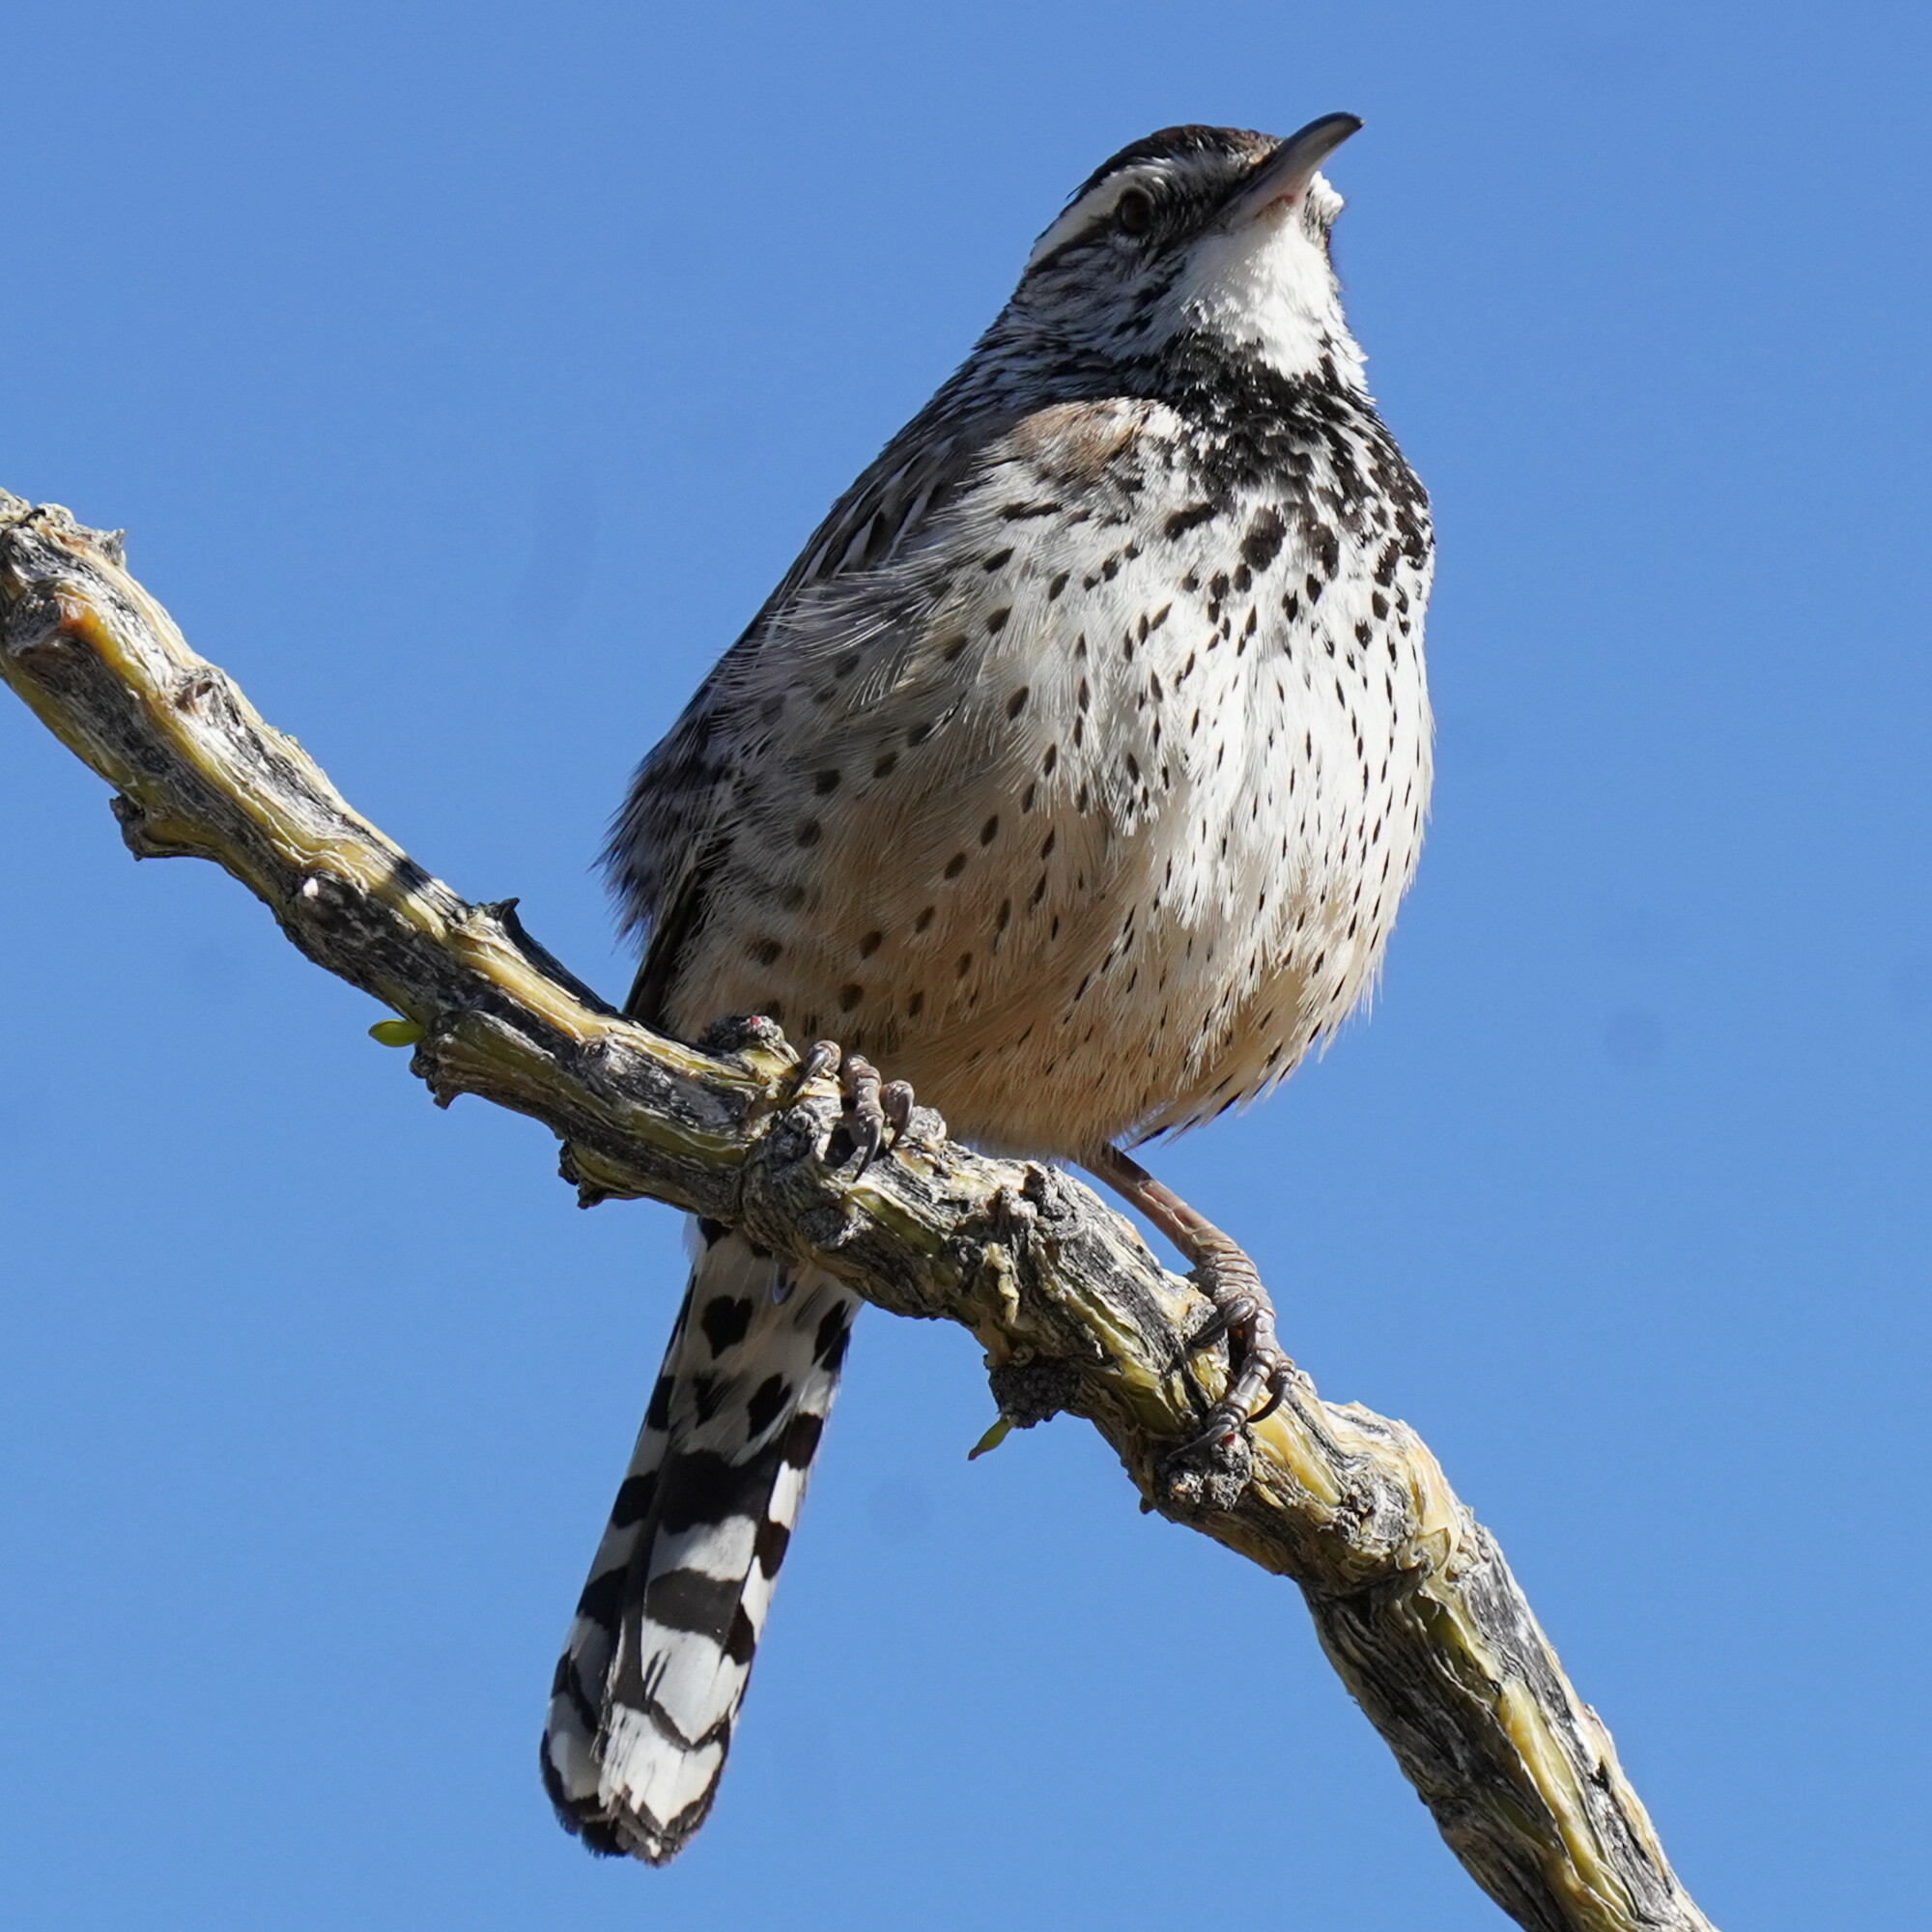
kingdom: Animalia
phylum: Chordata
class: Aves
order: Passeriformes
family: Troglodytidae
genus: Campylorhynchus
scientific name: Campylorhynchus brunneicapillus
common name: Cactus wren
